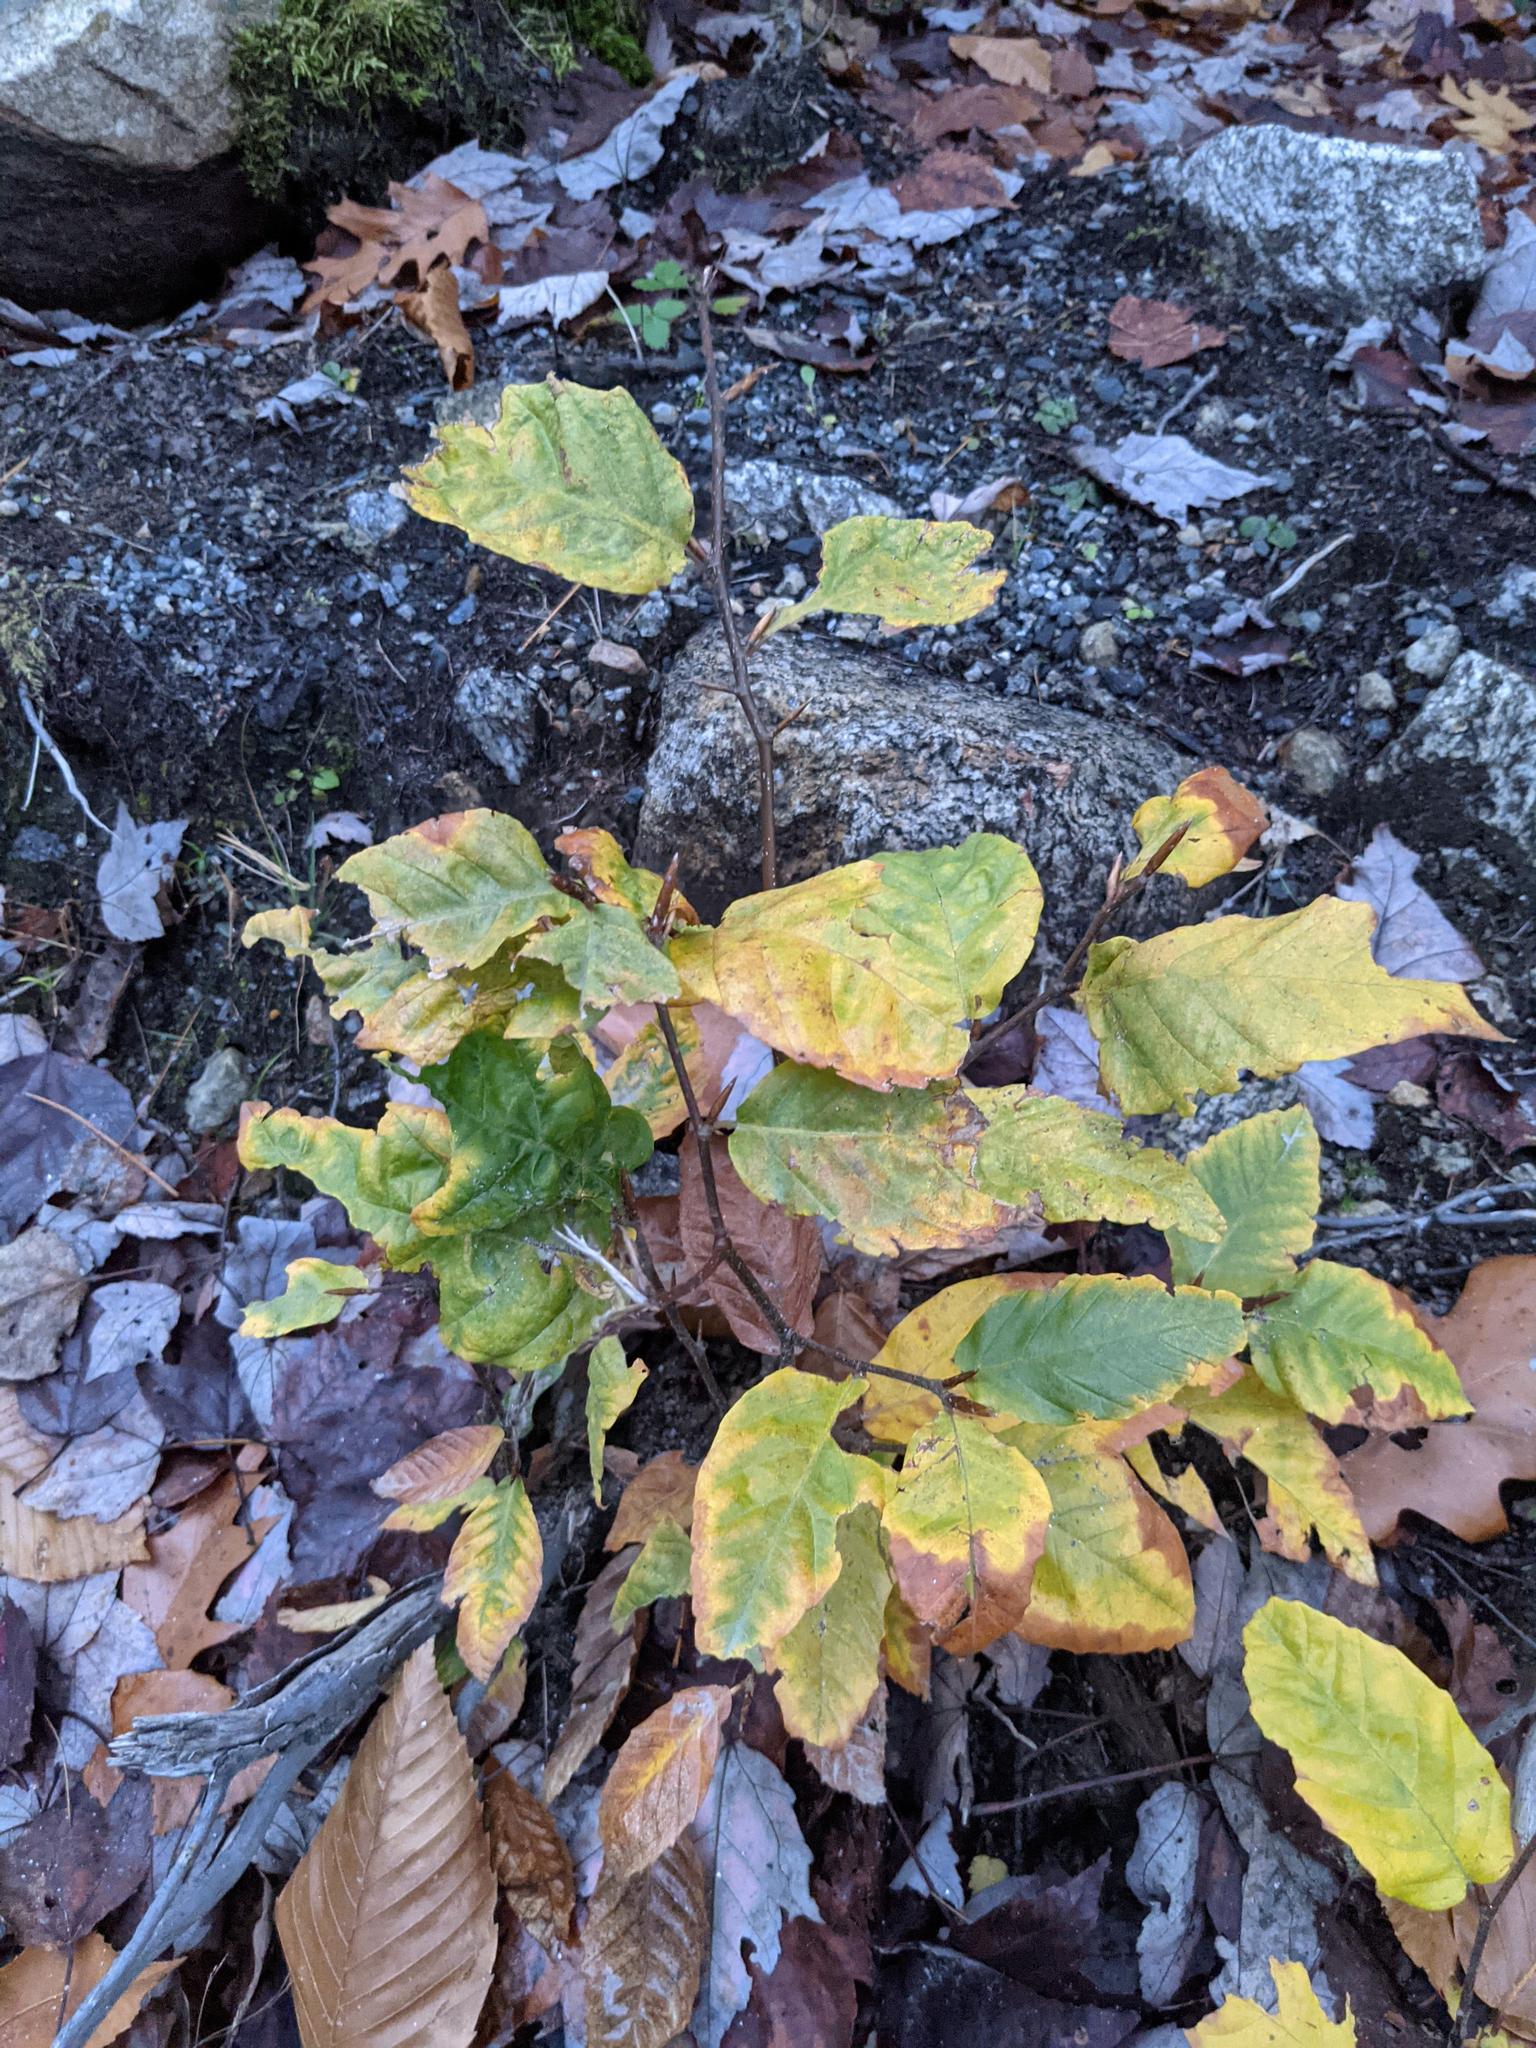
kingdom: Plantae
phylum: Tracheophyta
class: Magnoliopsida
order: Fagales
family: Fagaceae
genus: Fagus
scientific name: Fagus grandifolia
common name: American beech
